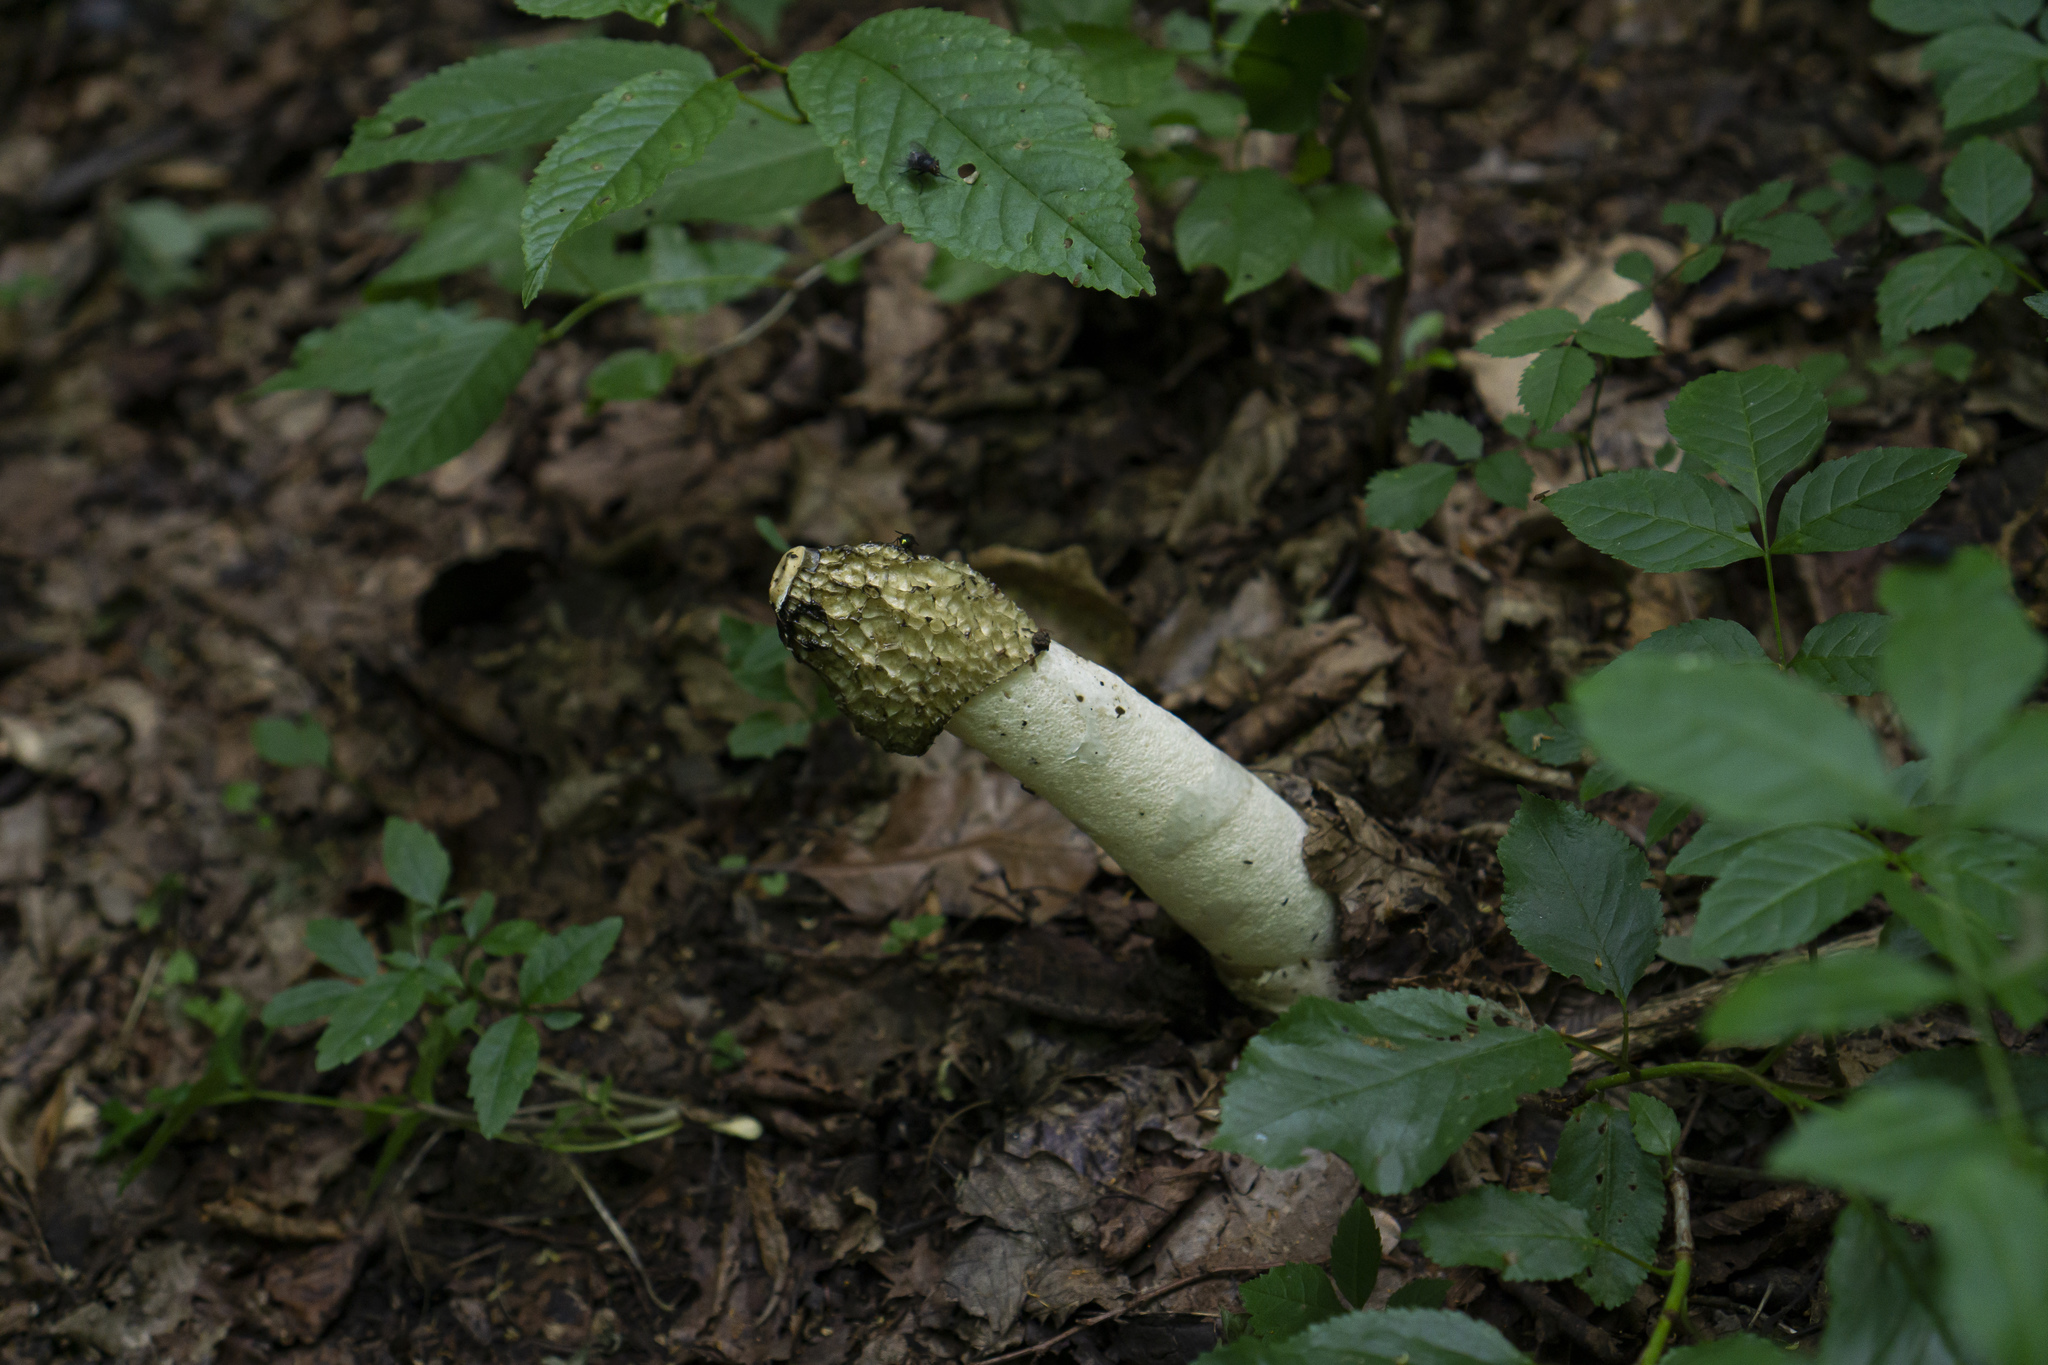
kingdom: Fungi
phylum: Basidiomycota
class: Agaricomycetes
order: Phallales
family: Phallaceae
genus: Phallus
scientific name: Phallus impudicus
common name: Common stinkhorn
